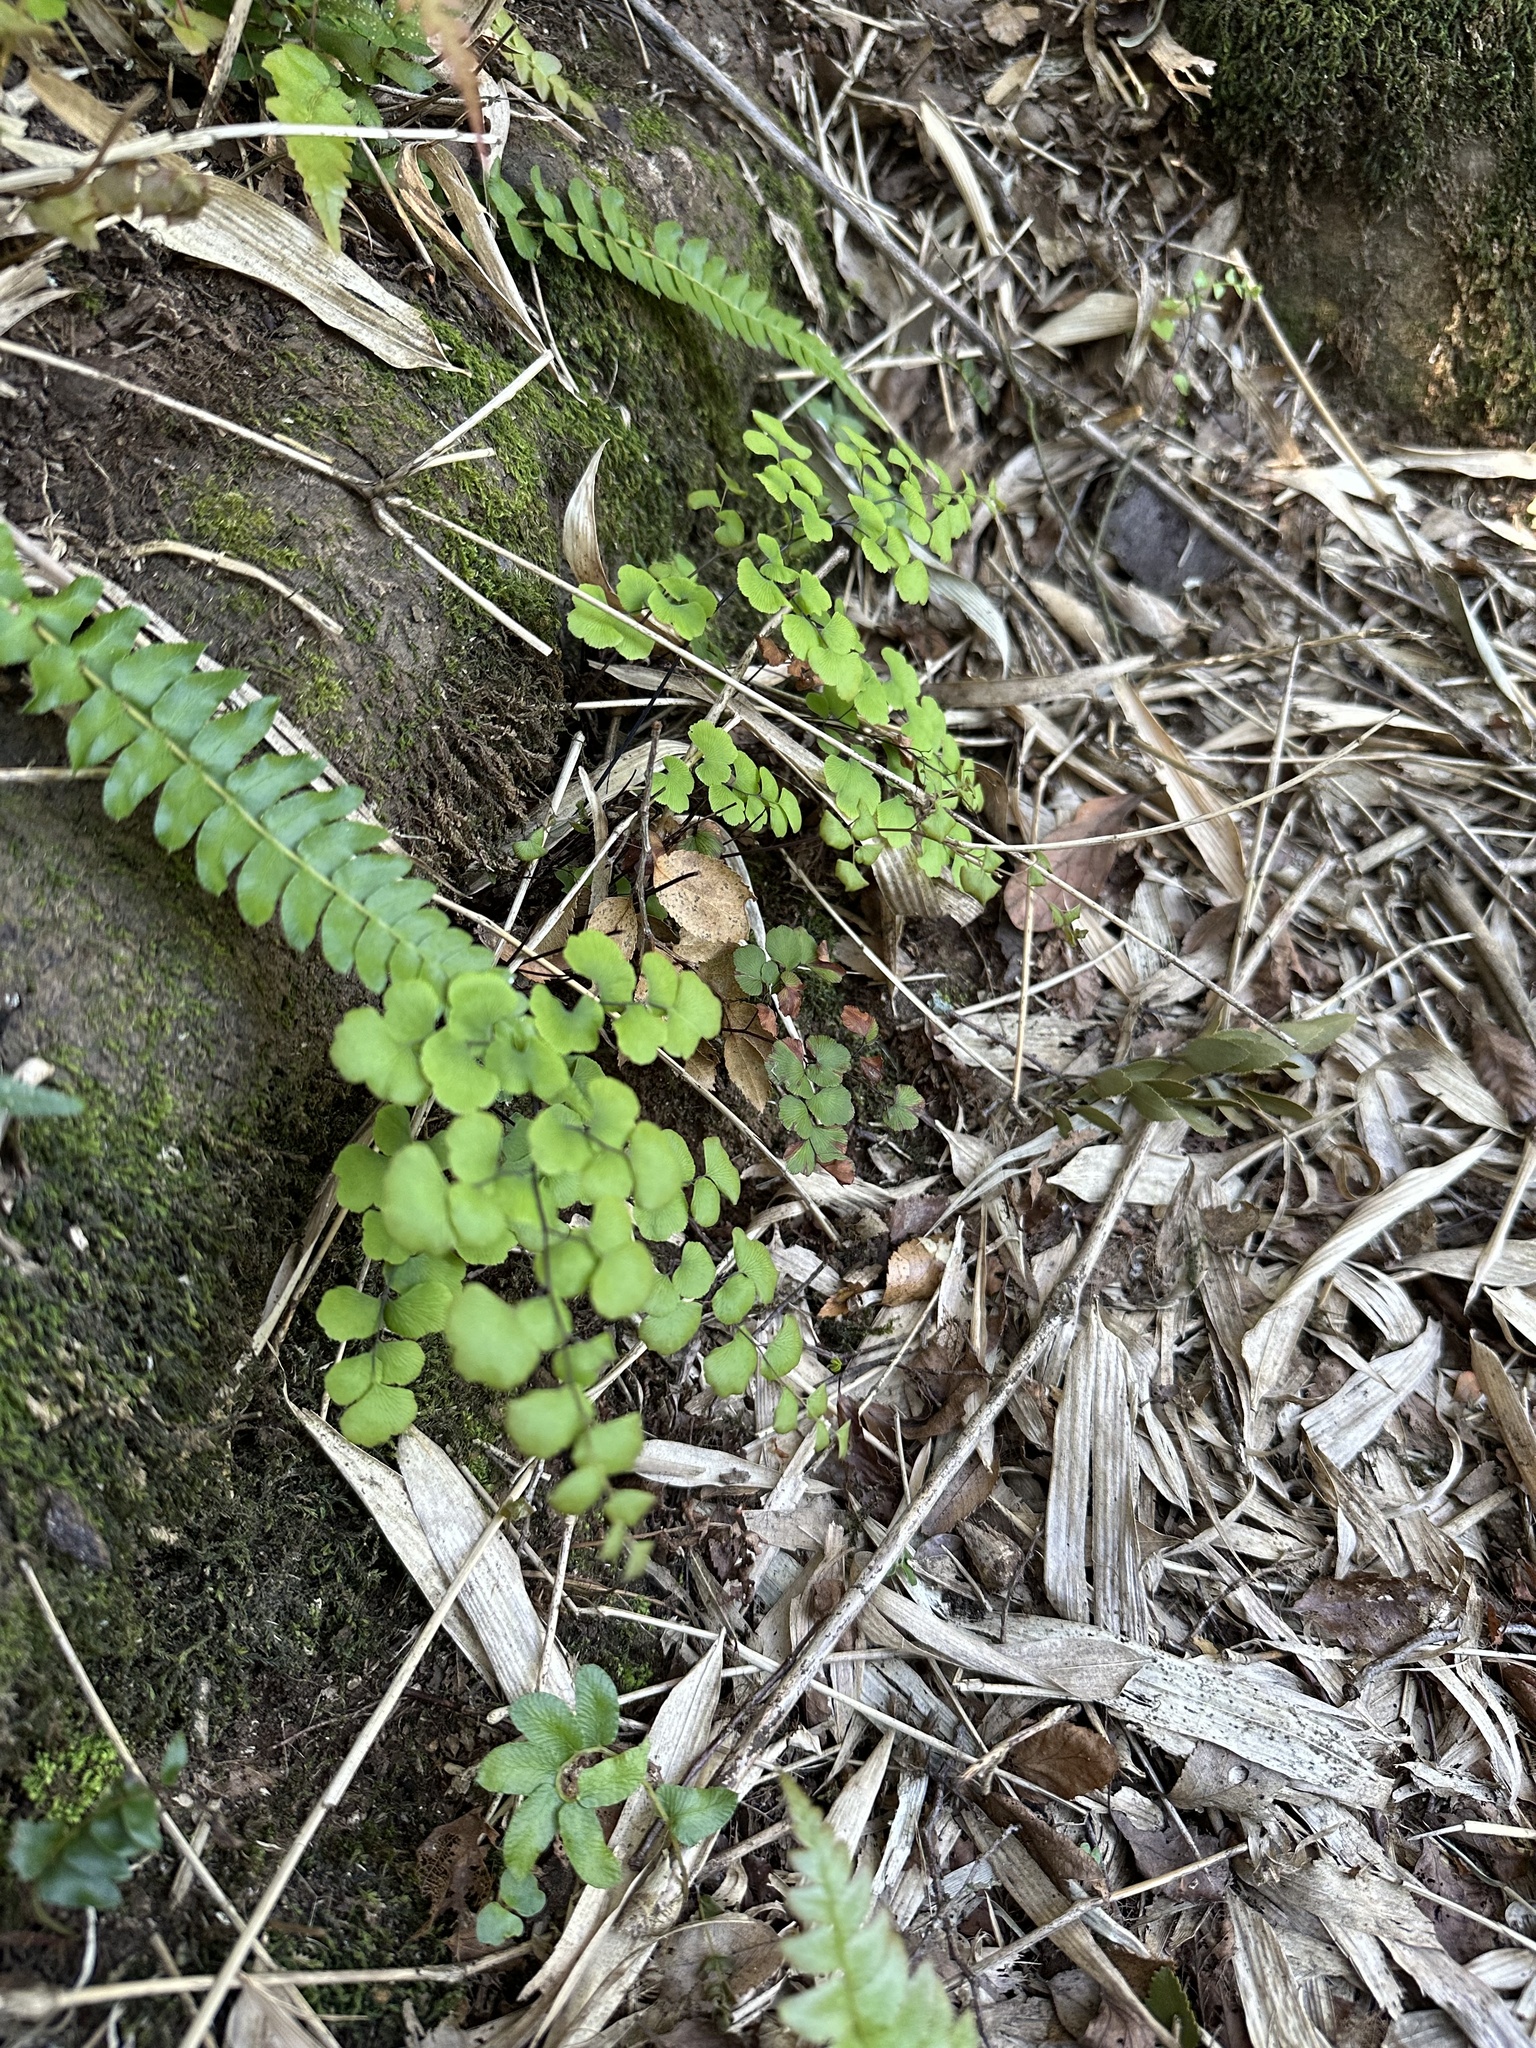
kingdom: Plantae
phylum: Tracheophyta
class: Polypodiopsida
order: Polypodiales
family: Pteridaceae
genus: Adiantum
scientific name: Adiantum chilense
